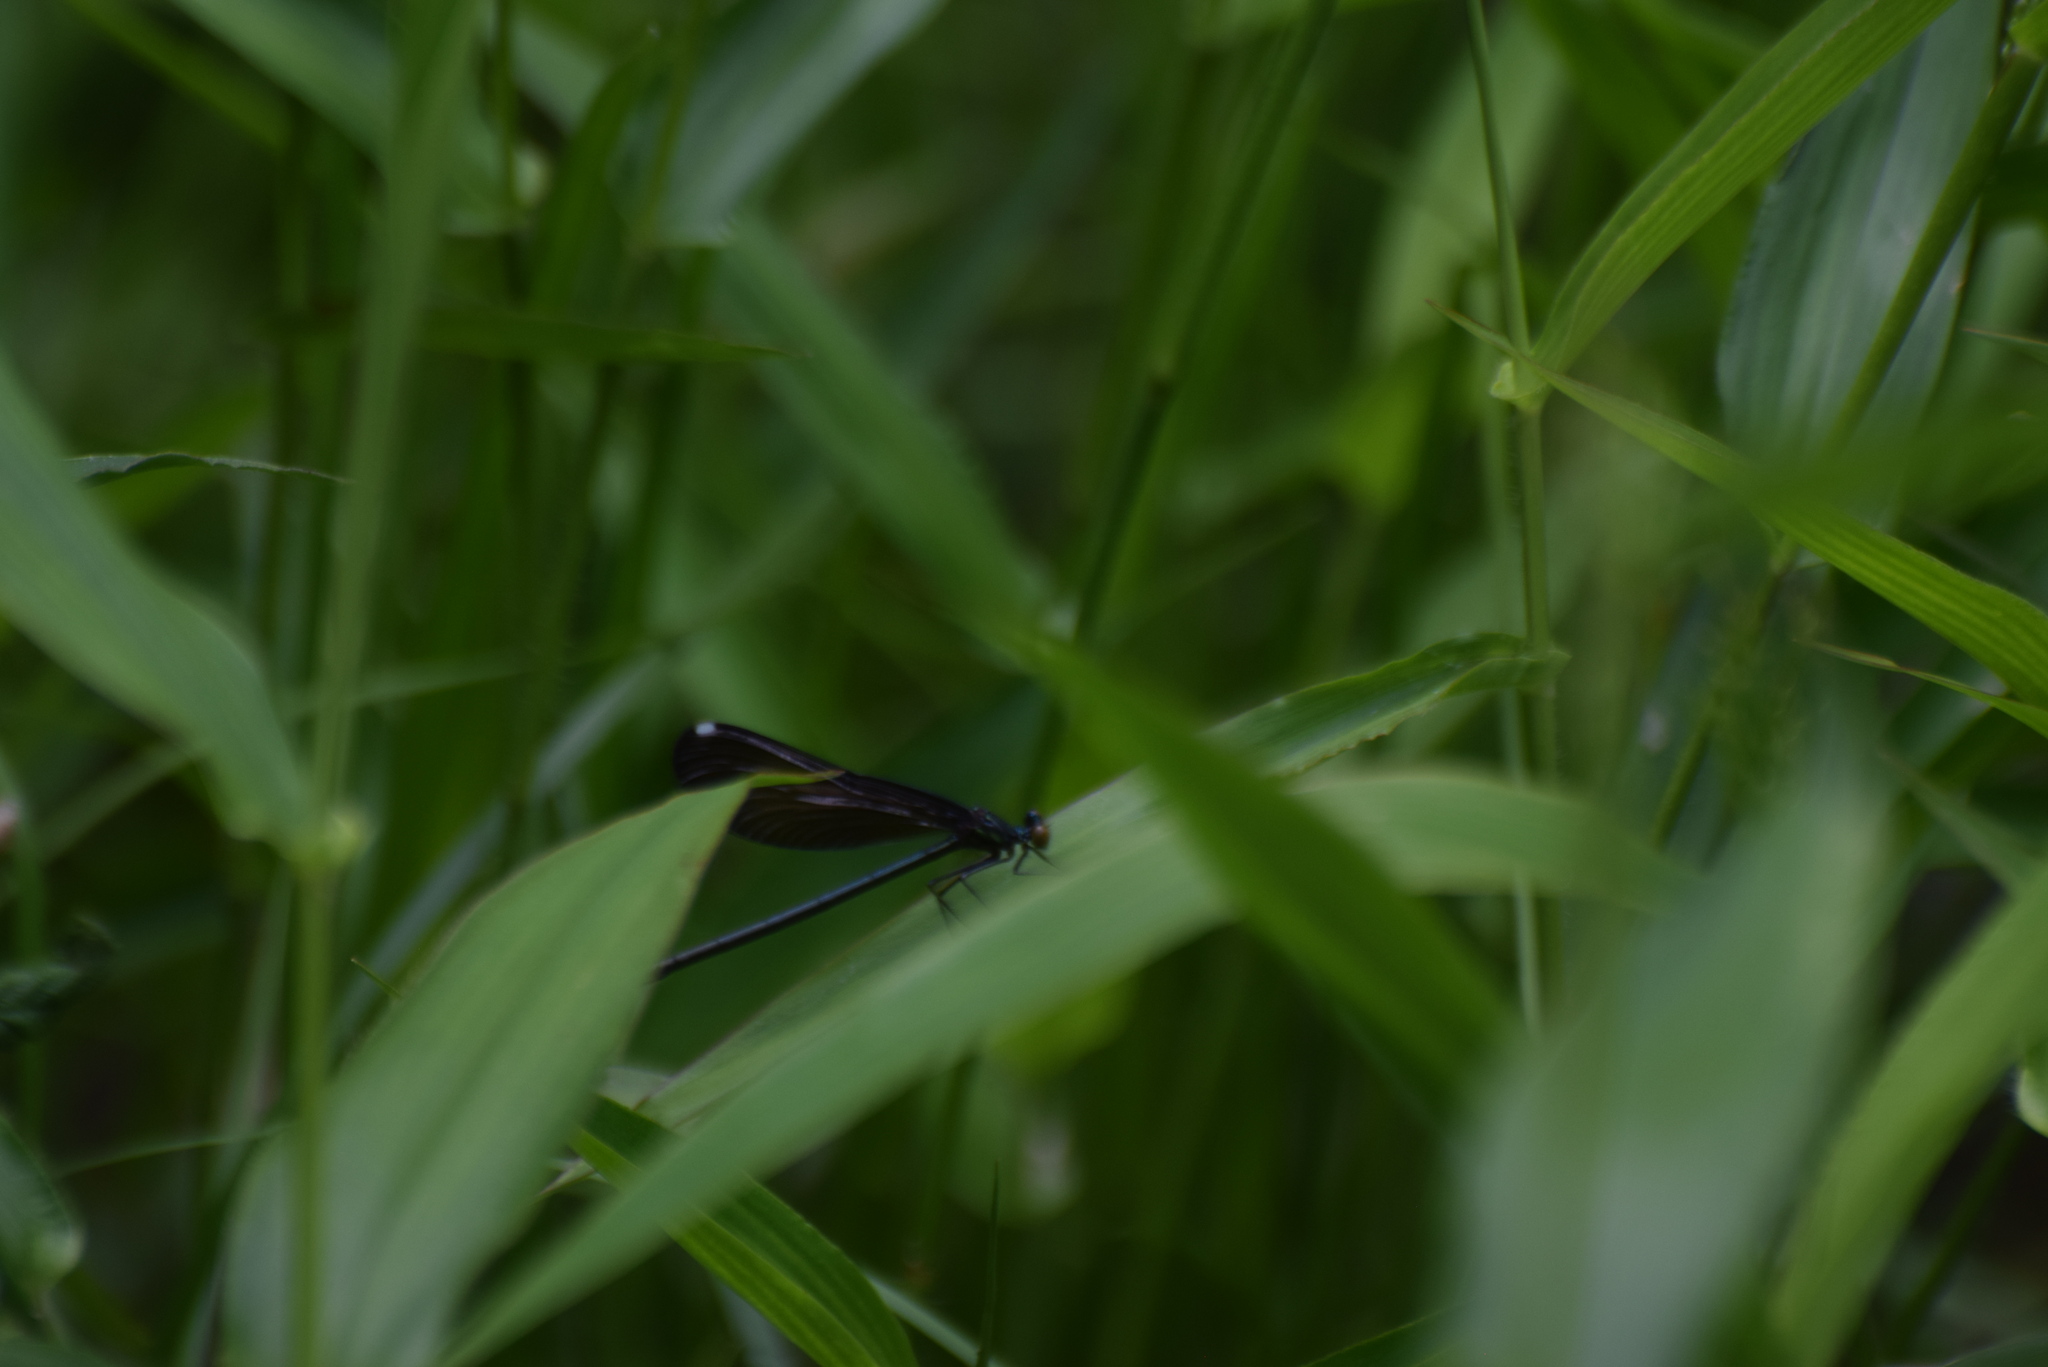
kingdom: Animalia
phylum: Arthropoda
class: Insecta
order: Odonata
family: Calopterygidae
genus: Calopteryx
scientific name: Calopteryx maculata
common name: Ebony jewelwing
